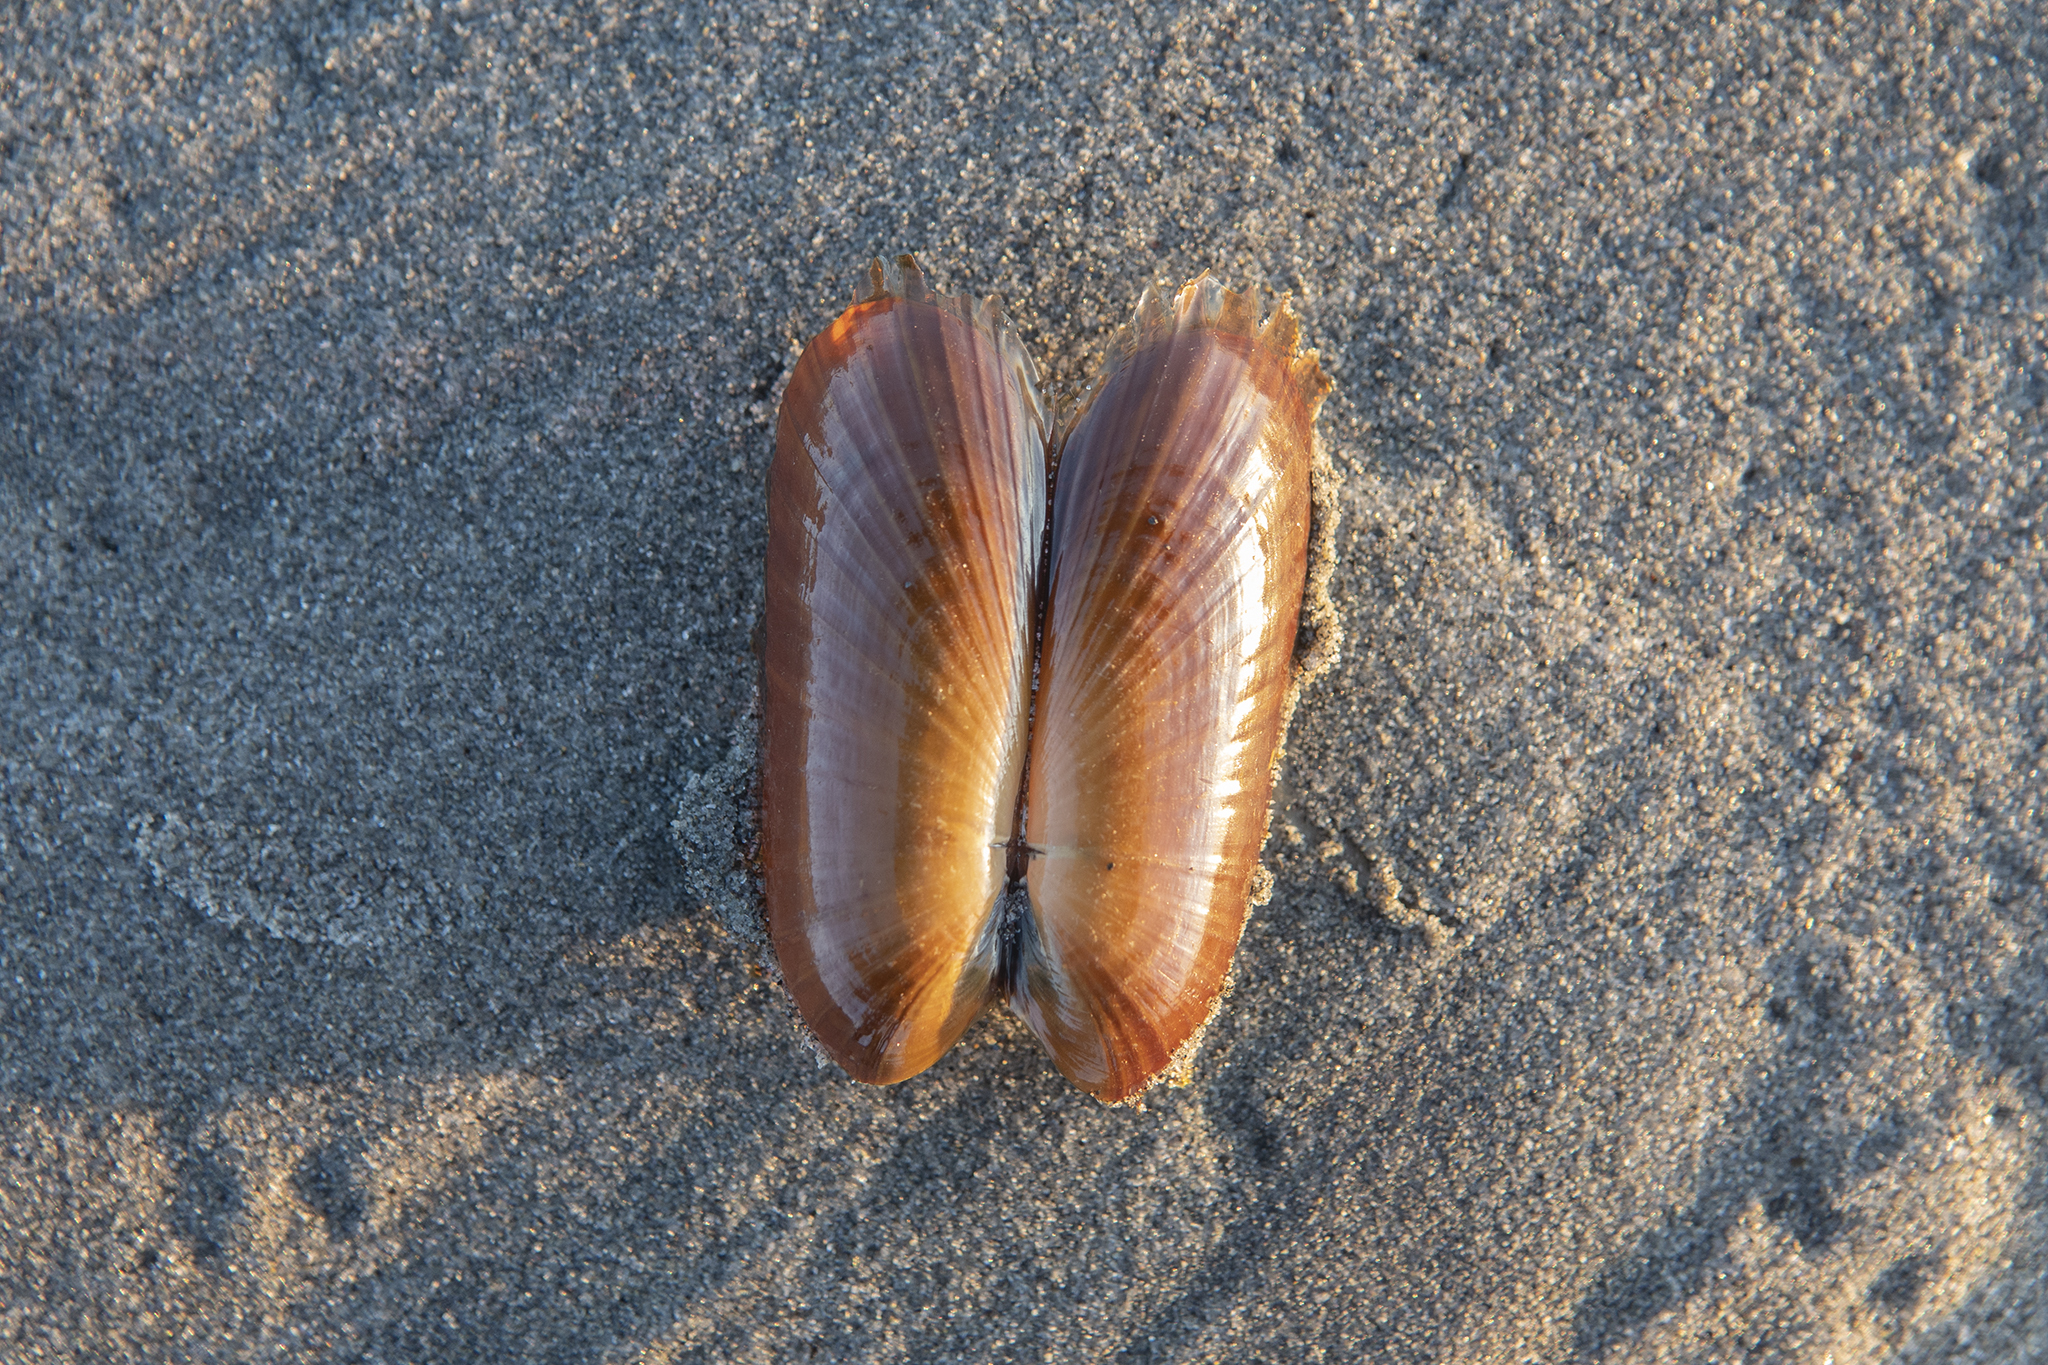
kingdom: Animalia
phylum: Mollusca
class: Bivalvia
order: Solemyida
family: Solemyidae
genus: Solemya
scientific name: Solemya parkinsonii
